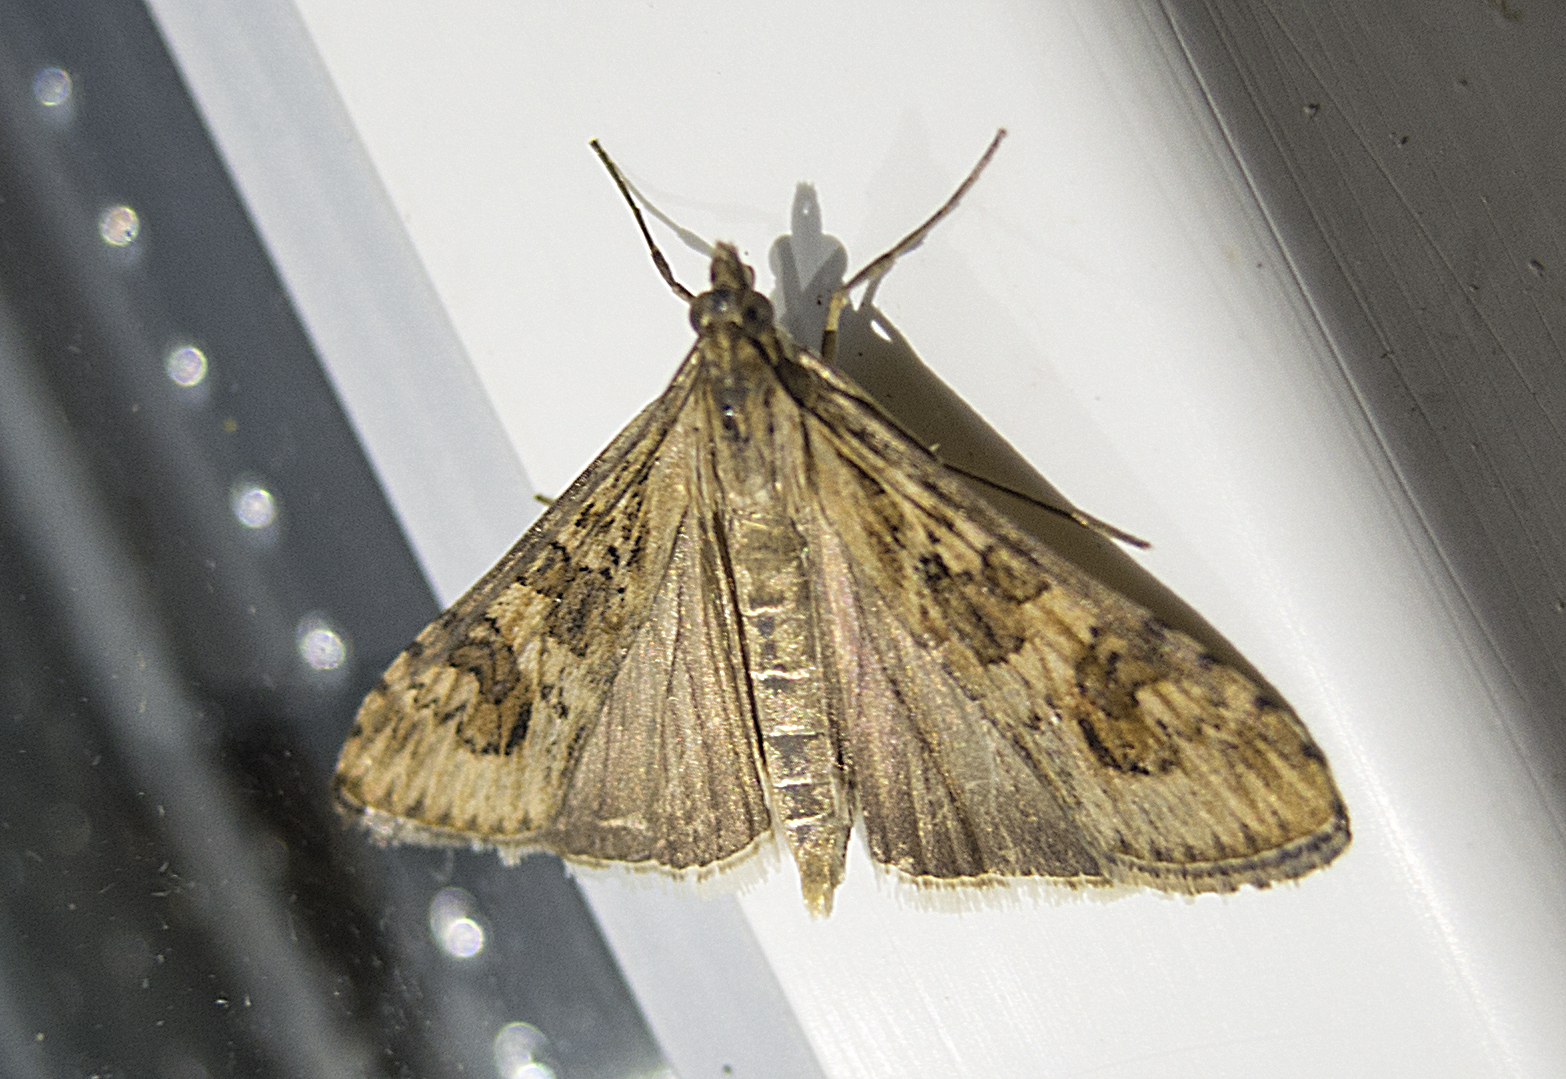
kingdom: Animalia
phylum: Arthropoda
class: Insecta
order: Lepidoptera
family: Crambidae
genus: Nomophila
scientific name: Nomophila noctuella
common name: Rush veneer
